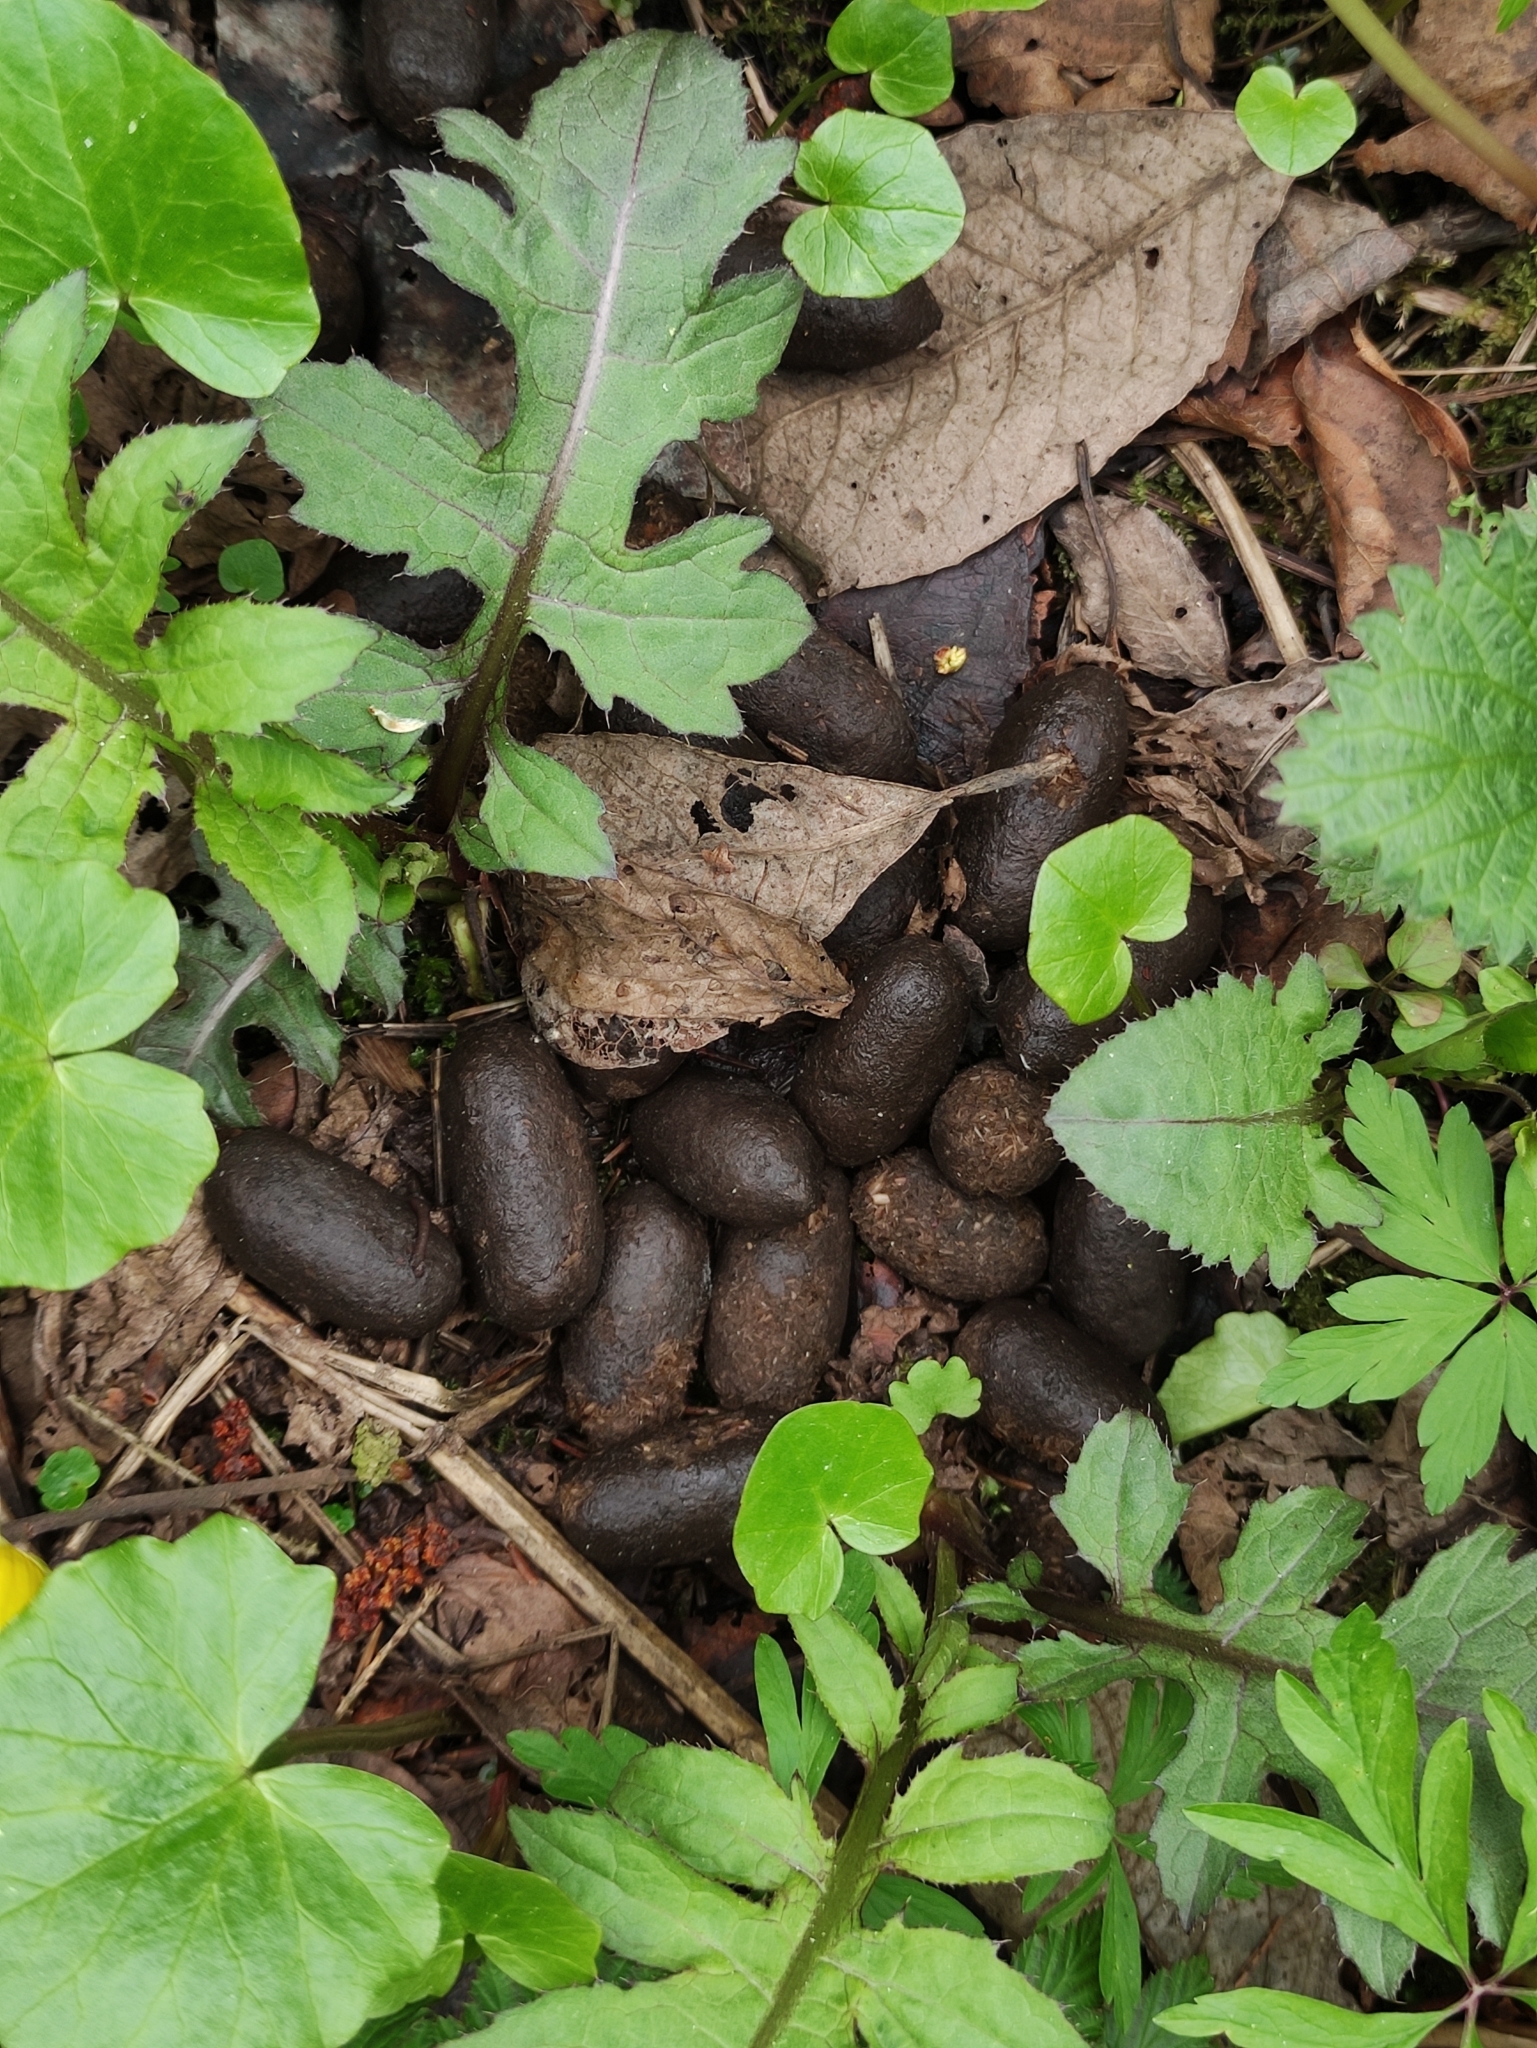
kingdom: Animalia
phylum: Chordata
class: Mammalia
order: Artiodactyla
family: Cervidae
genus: Alces
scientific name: Alces alces
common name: Moose
